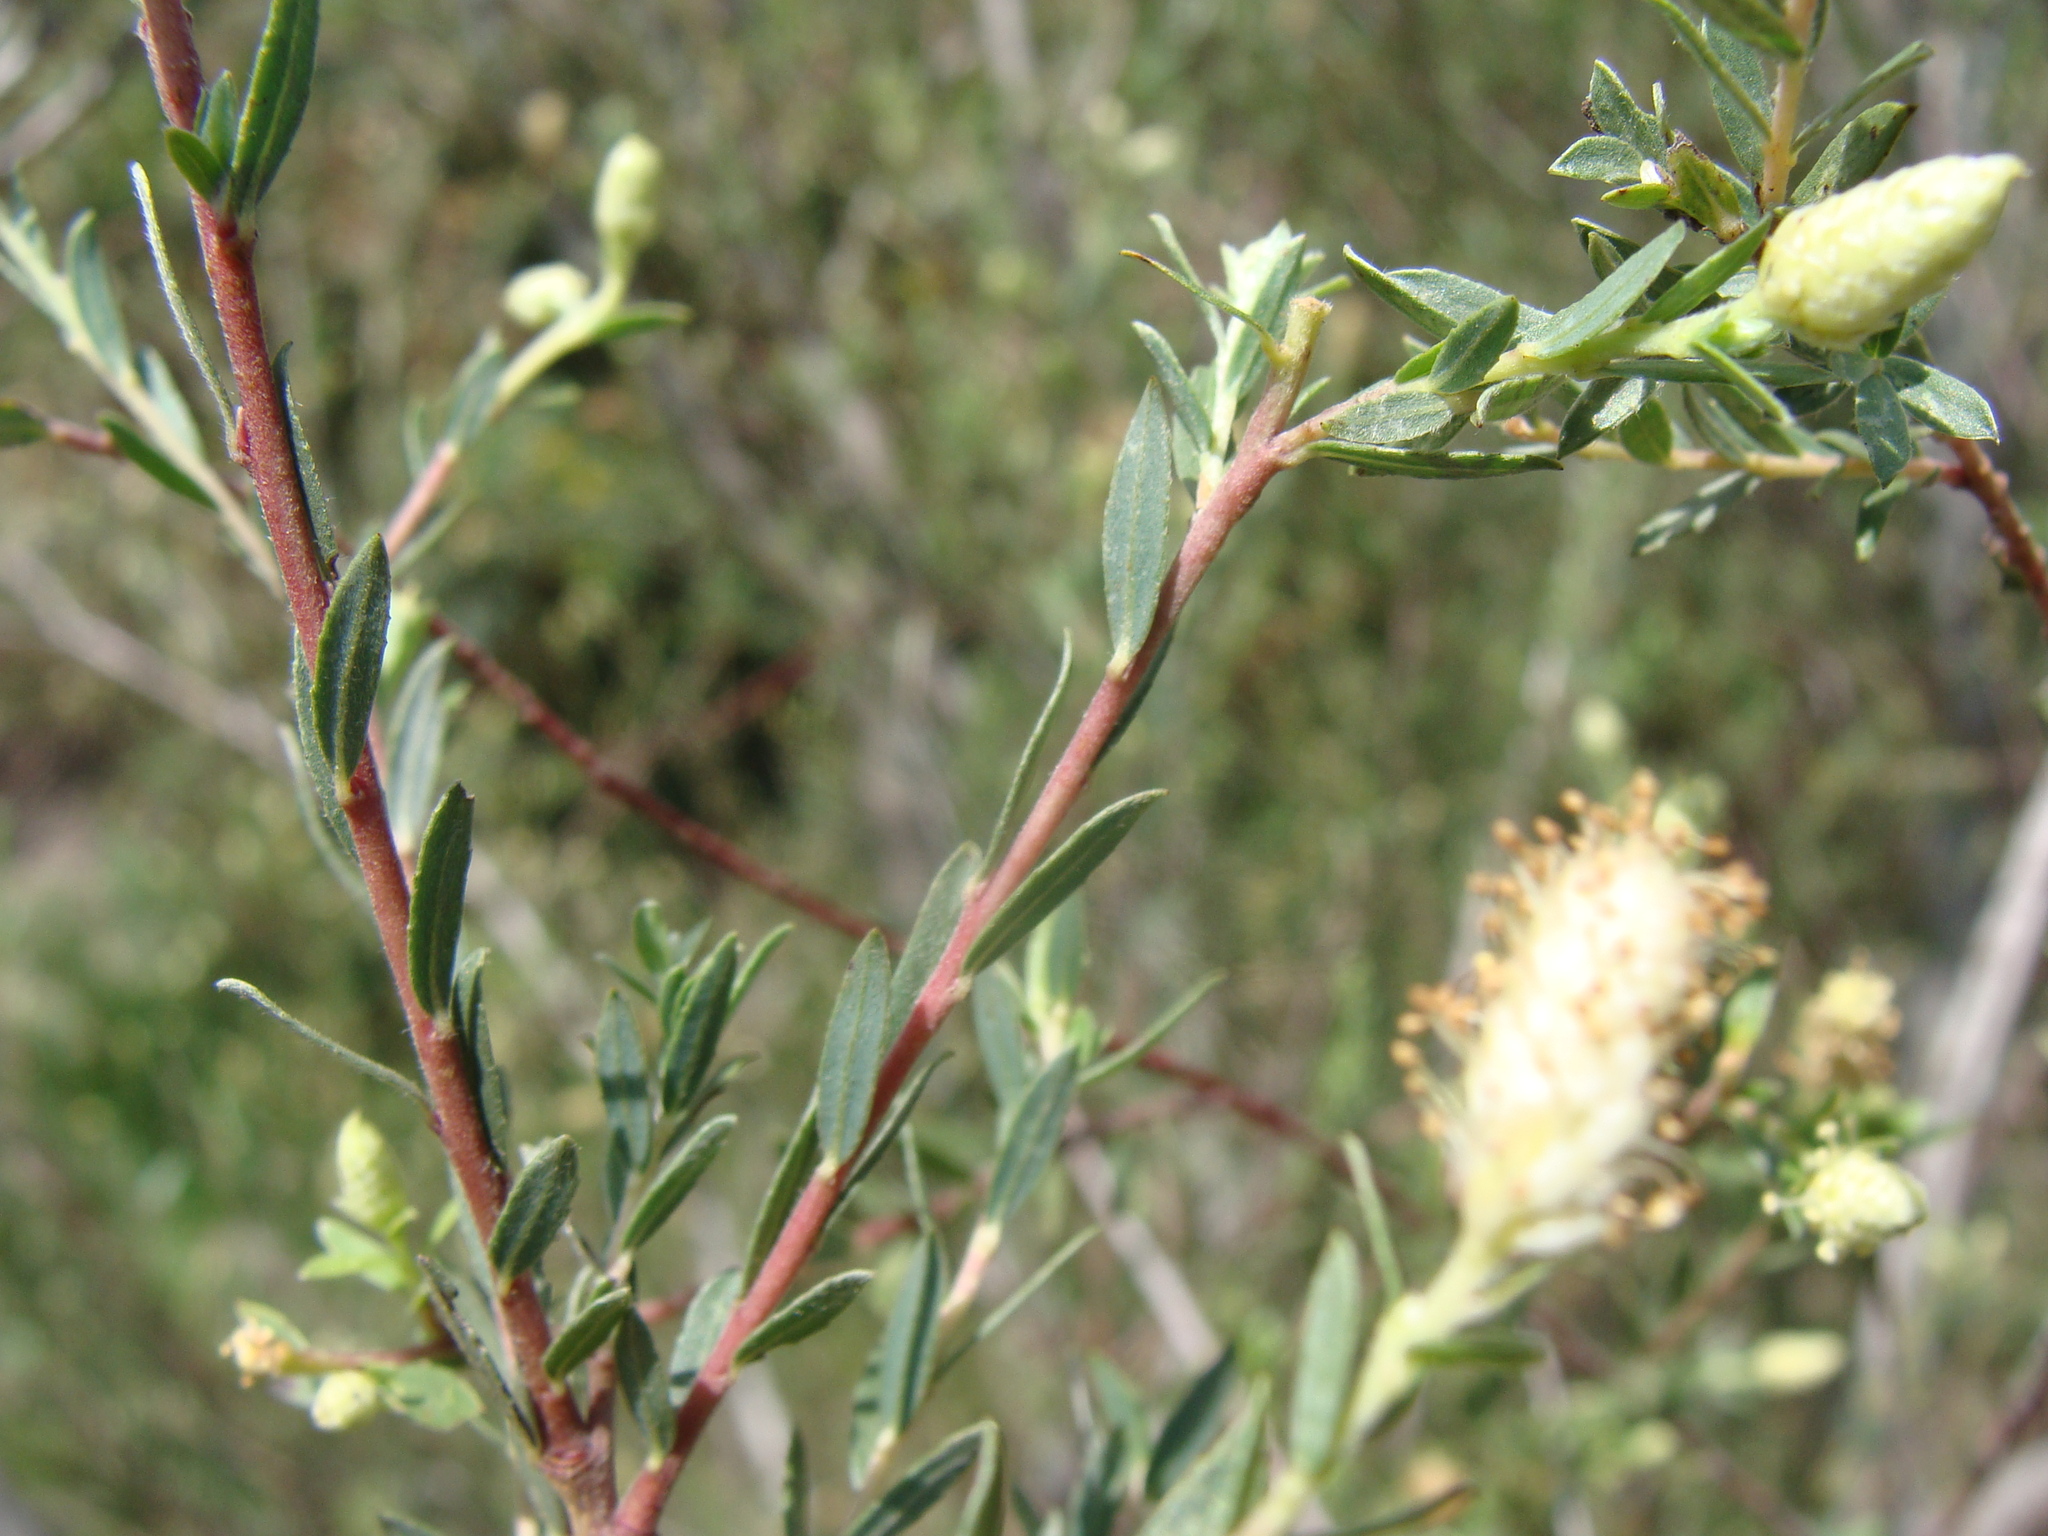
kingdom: Plantae
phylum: Tracheophyta
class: Magnoliopsida
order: Malpighiales
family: Salicaceae
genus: Salix
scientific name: Salix taxifolia
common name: Yew-leaf willow
